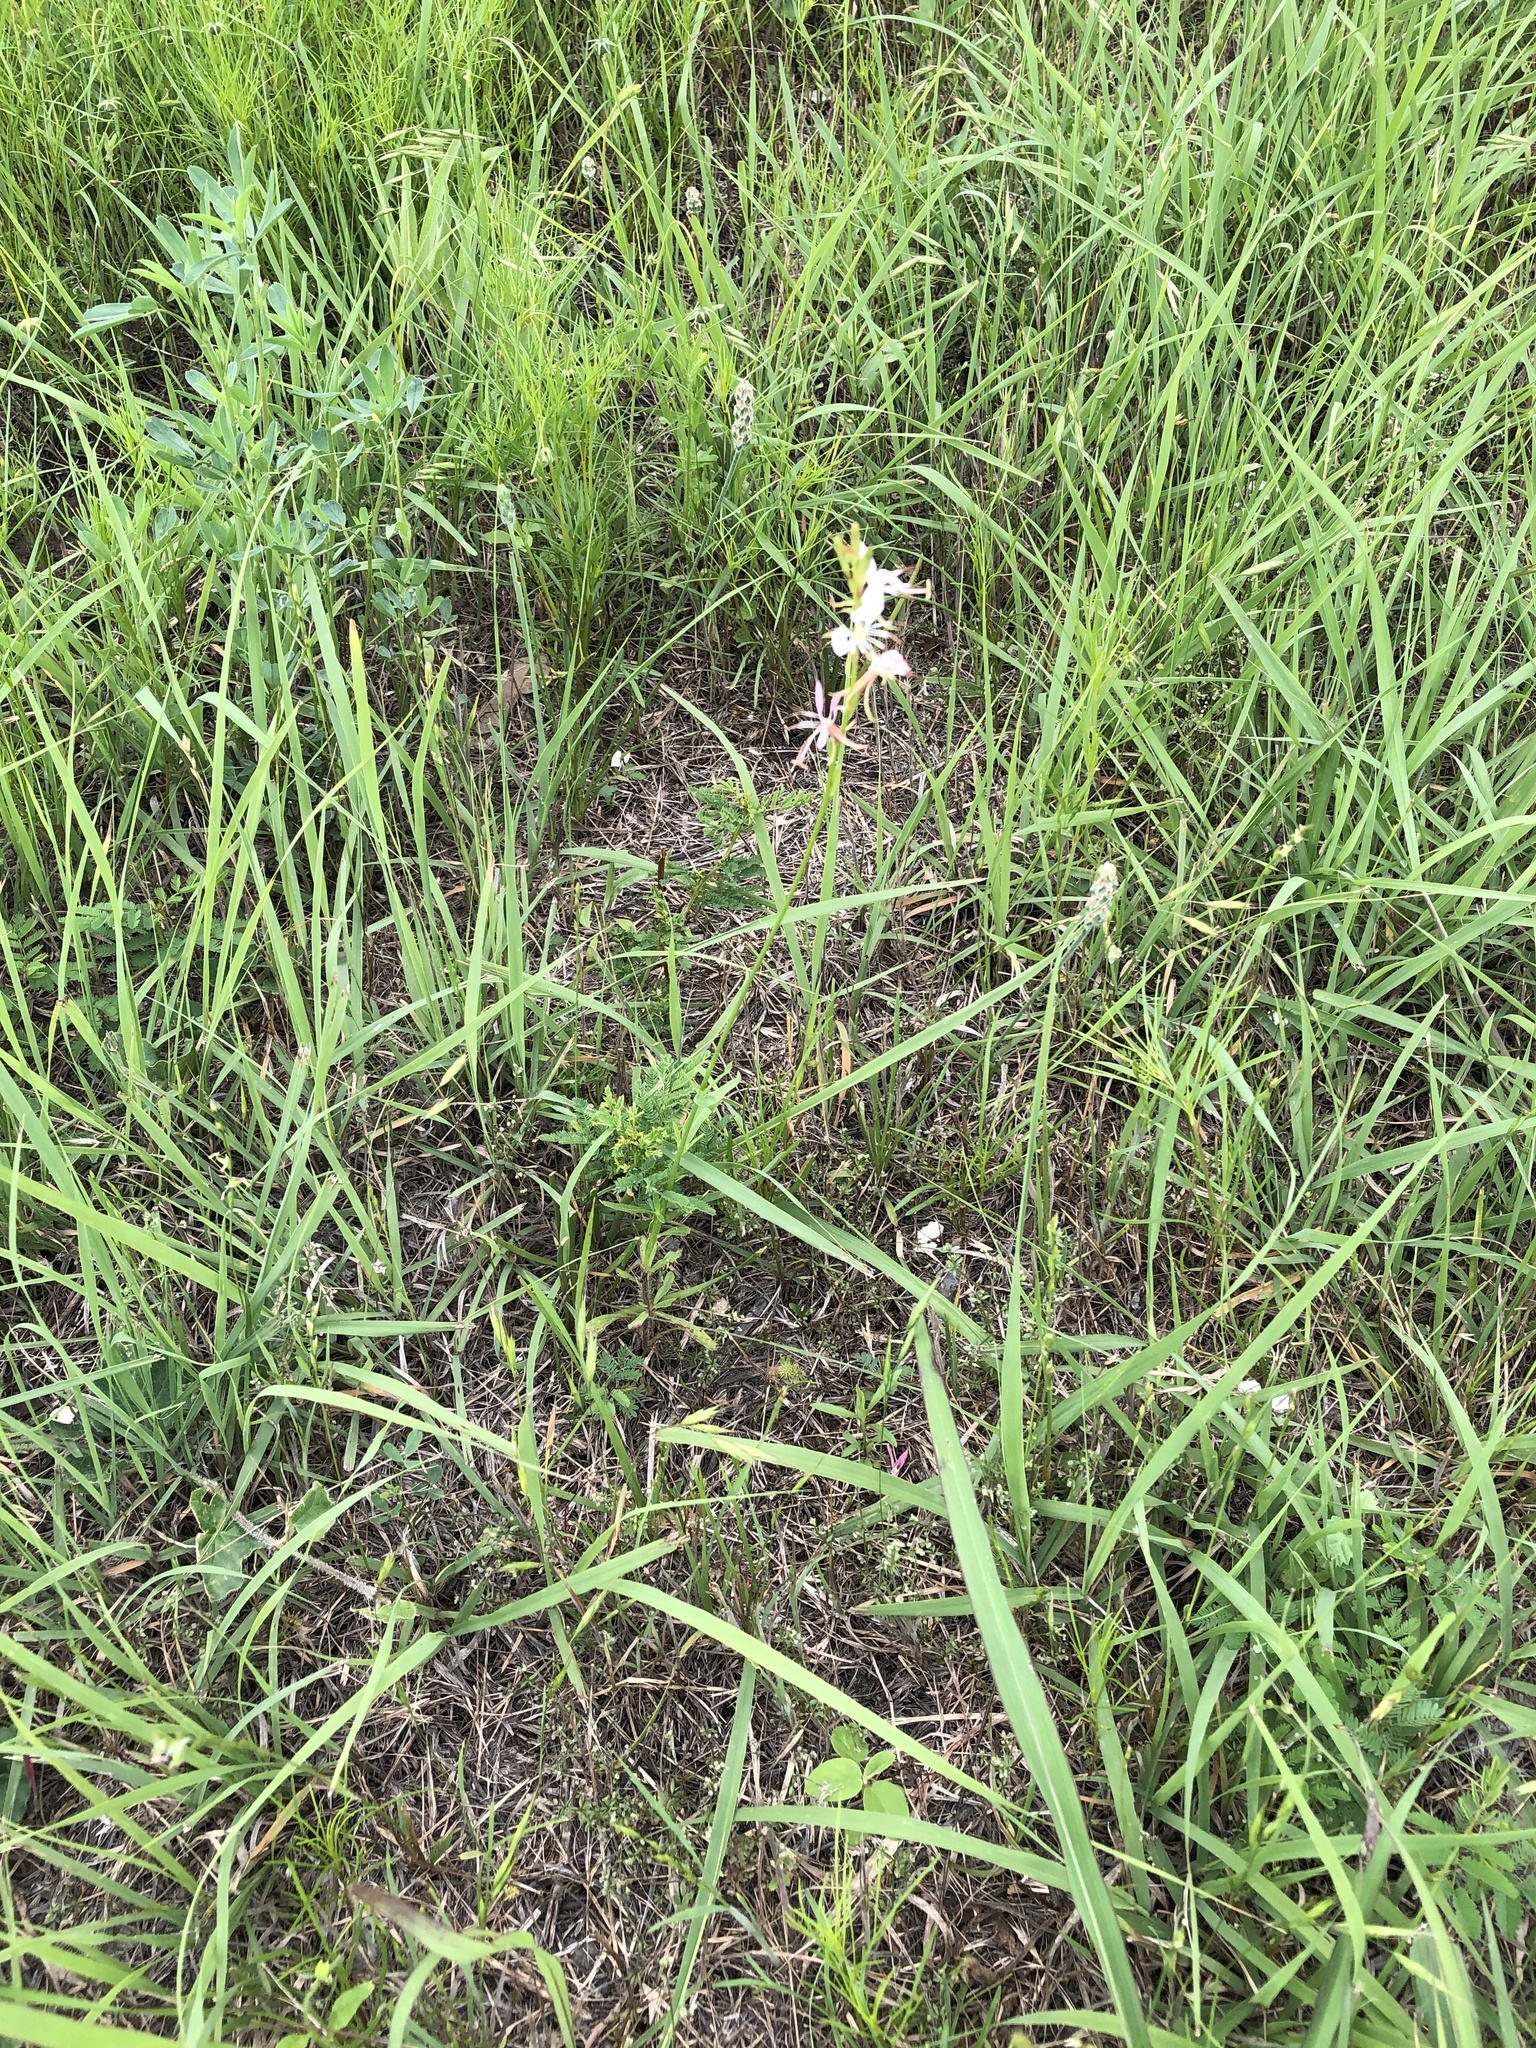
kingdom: Plantae
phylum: Tracheophyta
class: Magnoliopsida
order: Myrtales
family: Onagraceae
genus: Oenothera
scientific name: Oenothera suffulta
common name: Kisses
